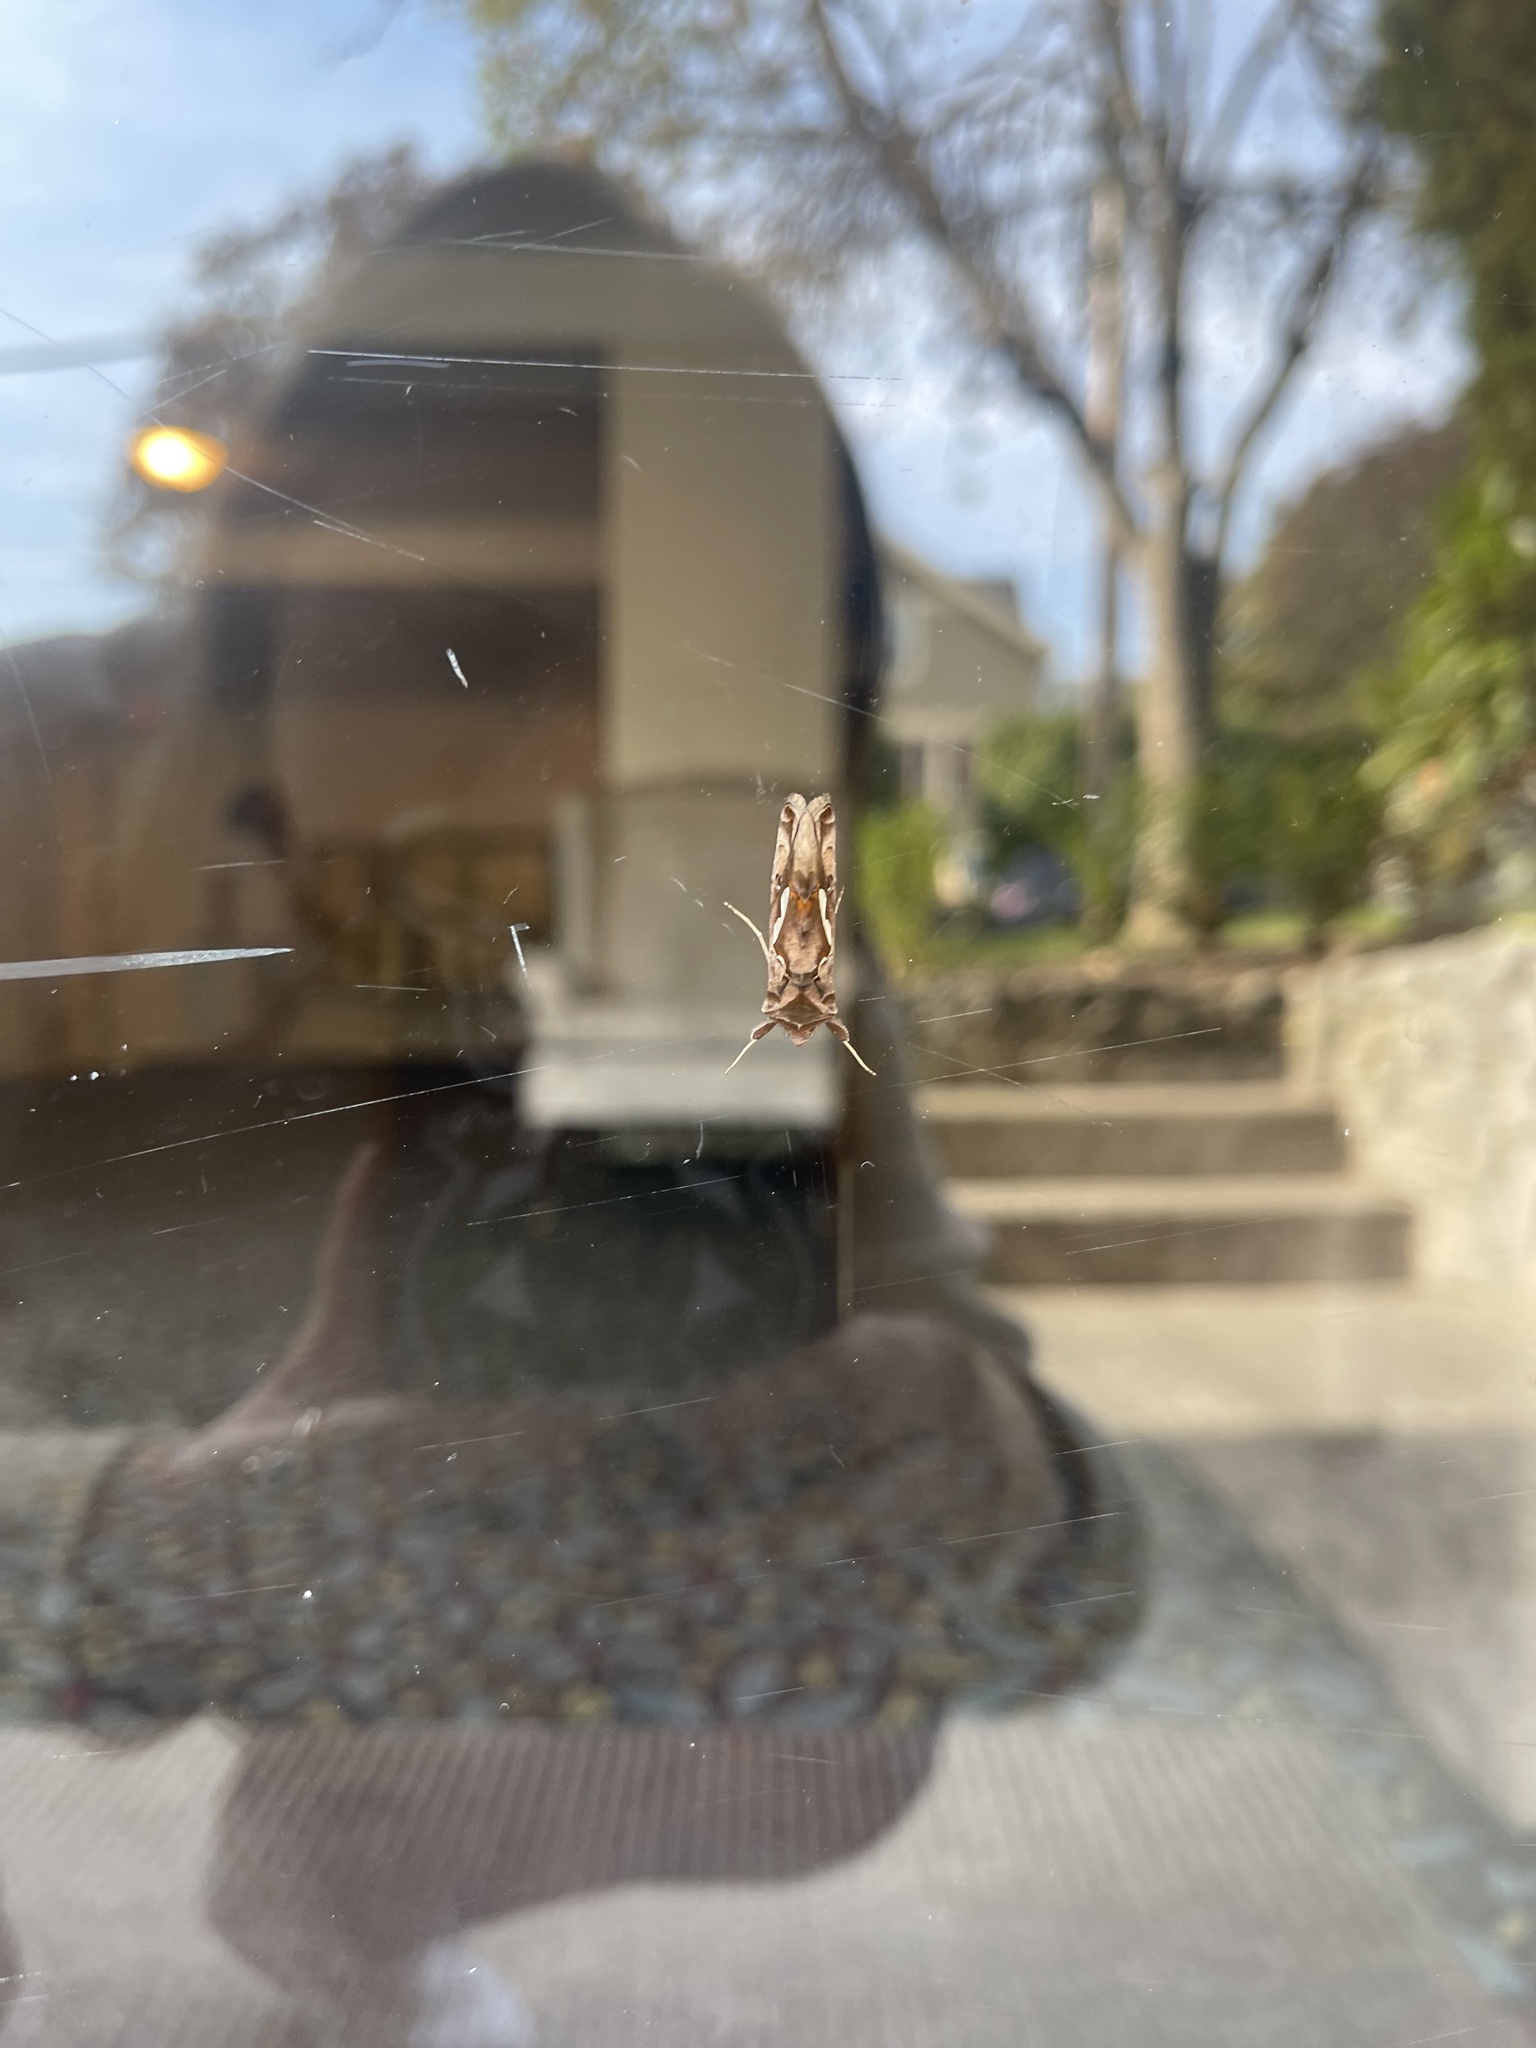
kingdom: Animalia
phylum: Arthropoda
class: Insecta
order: Lepidoptera
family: Noctuidae
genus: Megalographa
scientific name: Megalographa biloba
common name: Cutworm
